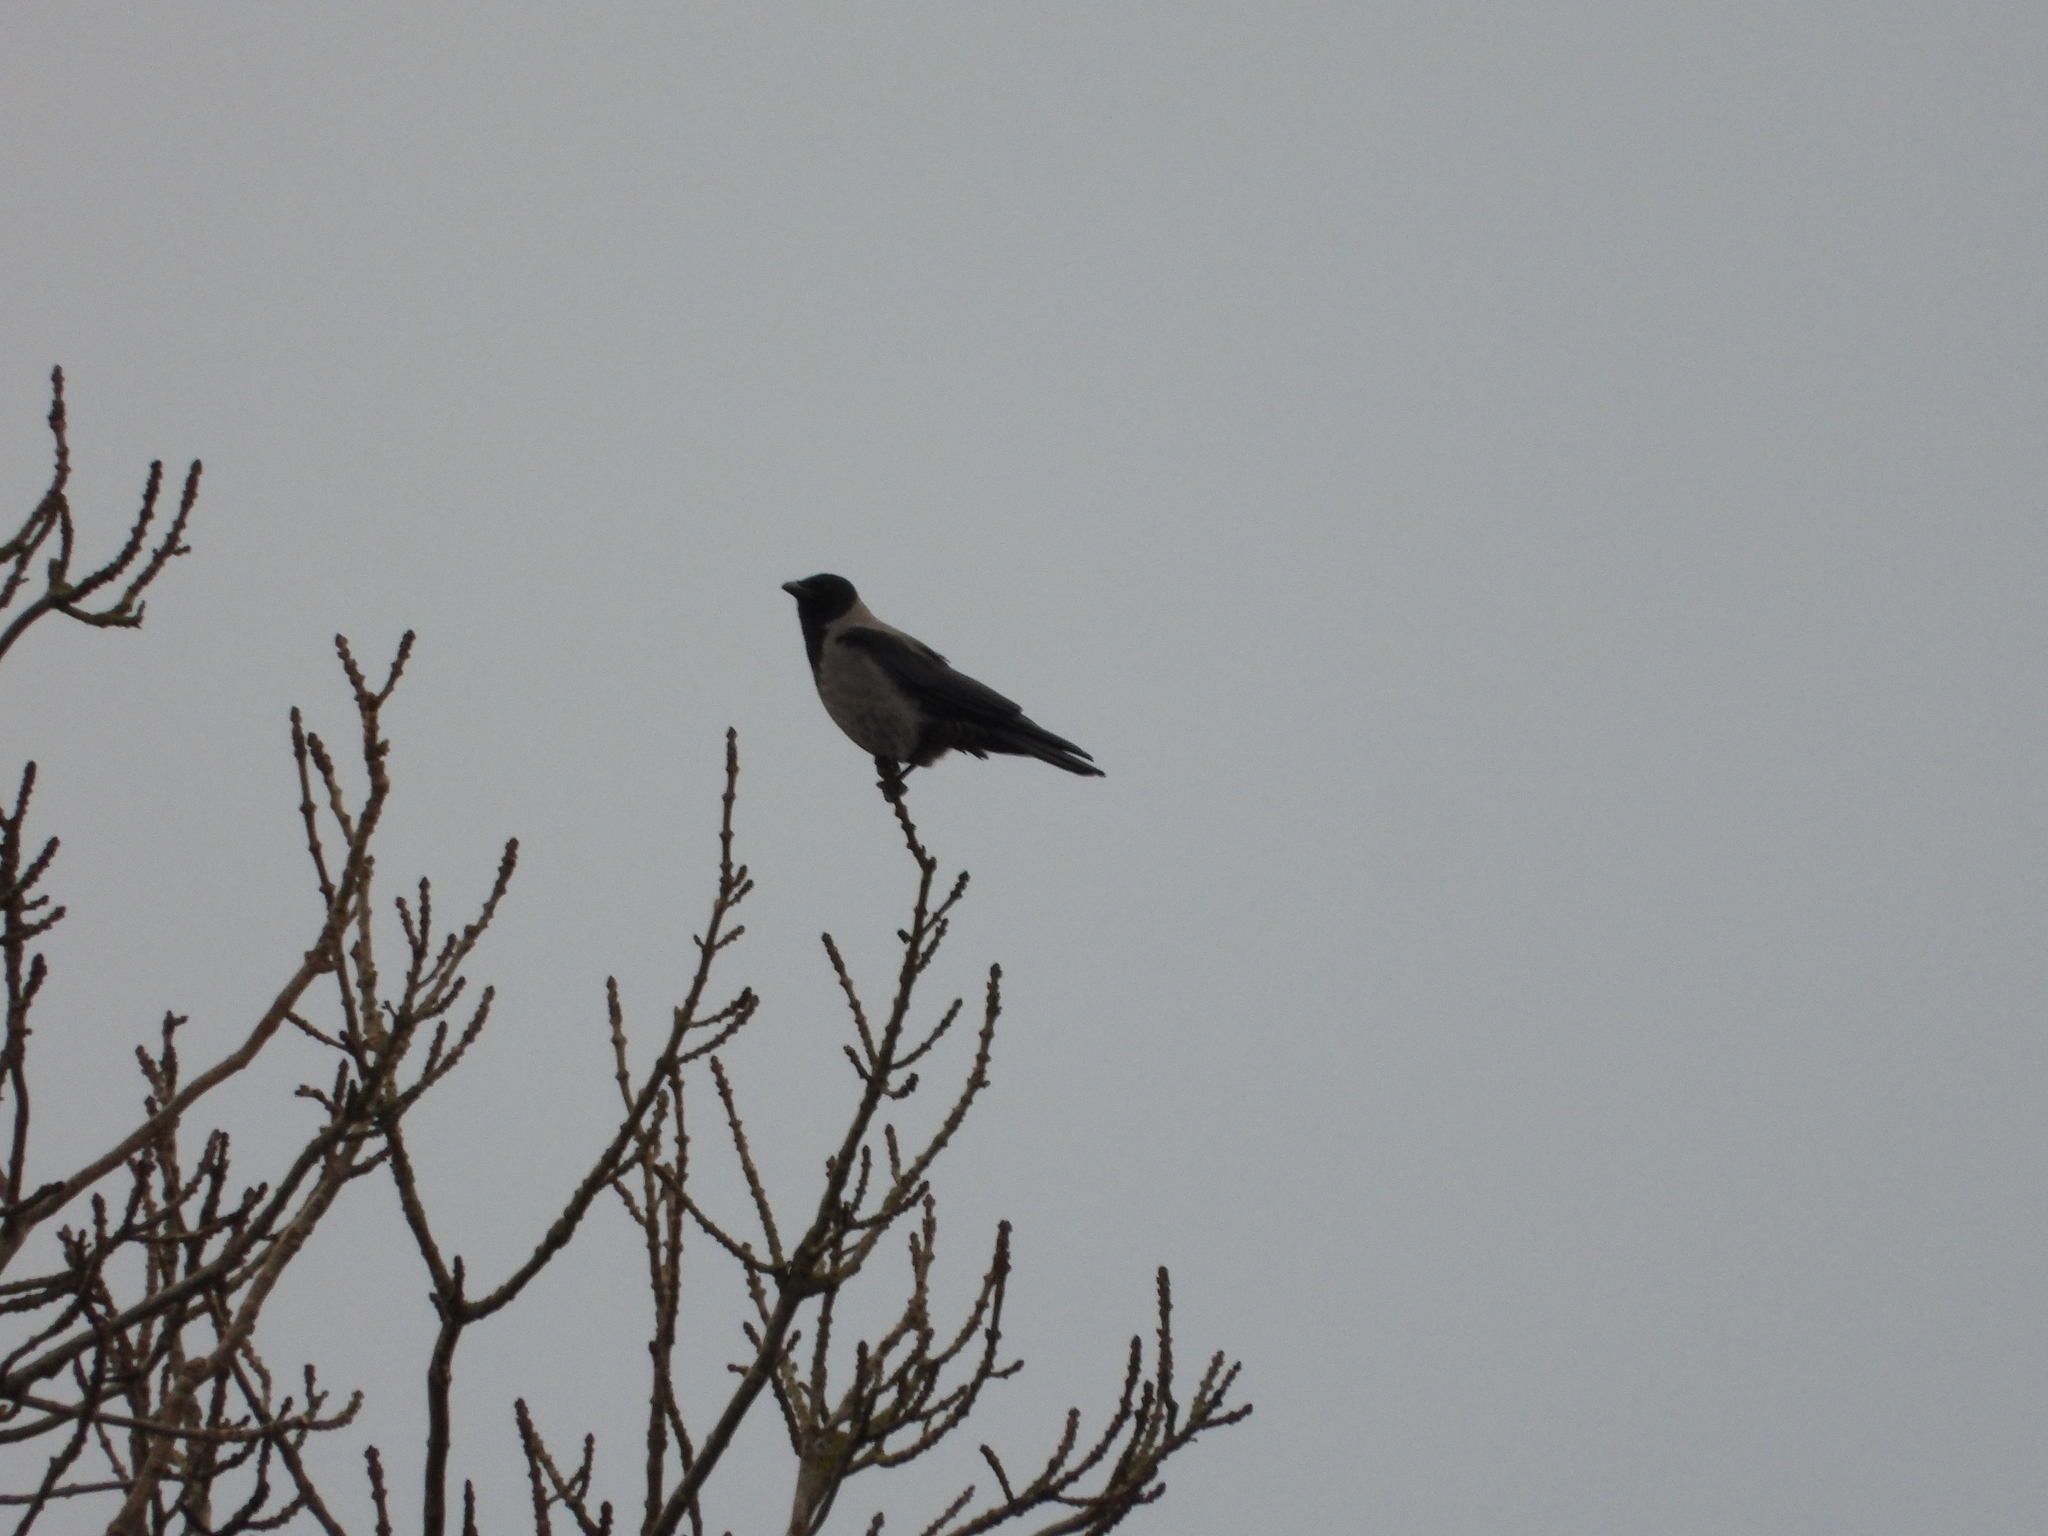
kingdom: Animalia
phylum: Chordata
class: Aves
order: Passeriformes
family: Corvidae
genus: Corvus
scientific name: Corvus cornix
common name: Hooded crow
